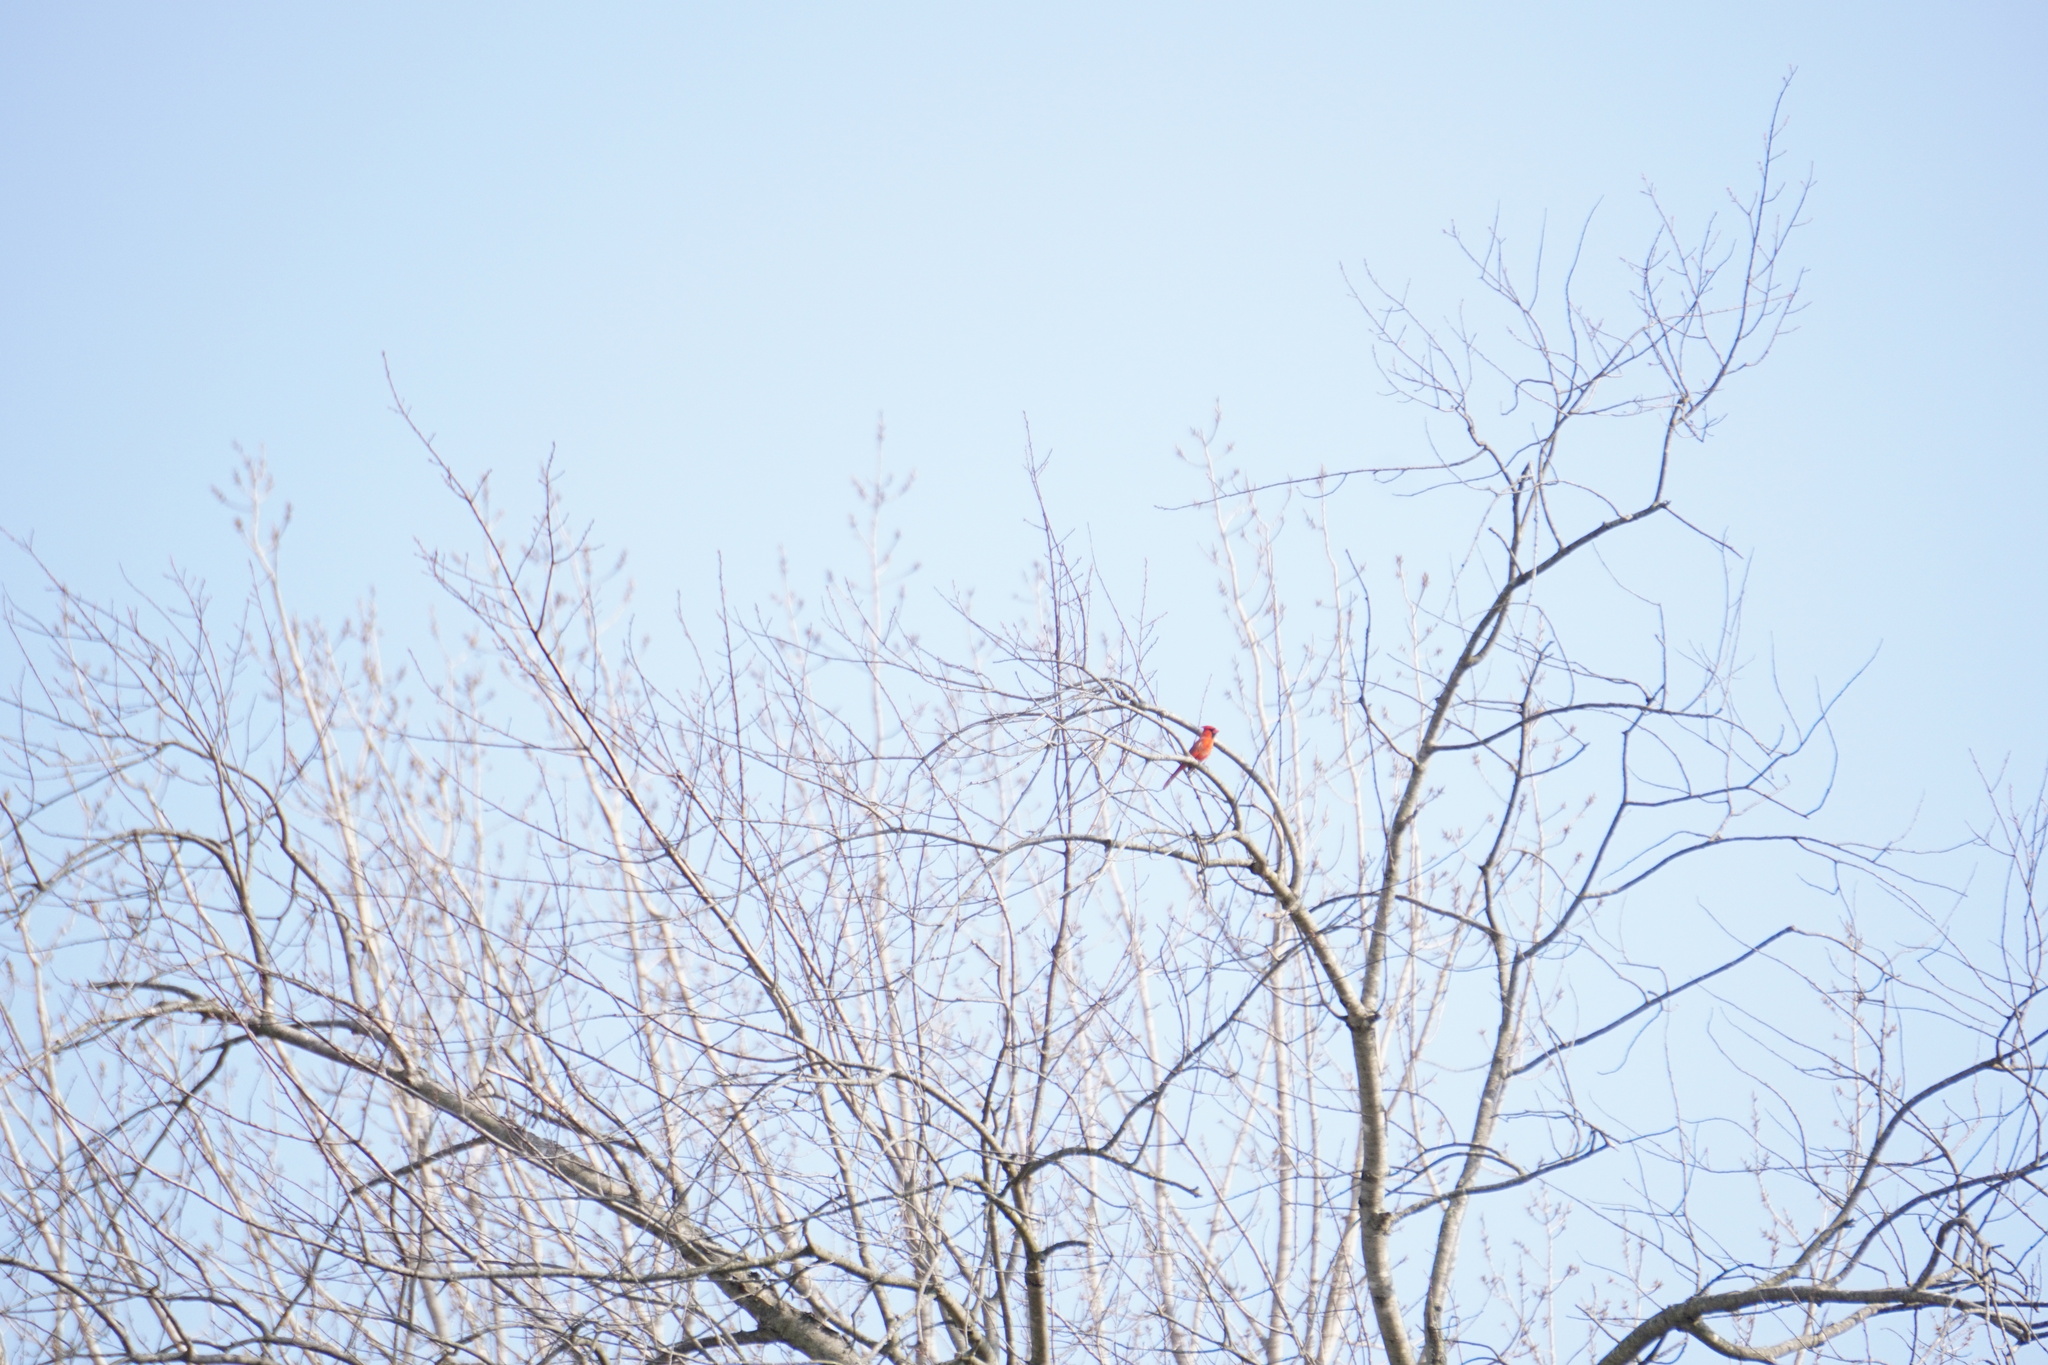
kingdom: Animalia
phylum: Chordata
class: Aves
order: Passeriformes
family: Cardinalidae
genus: Cardinalis
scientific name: Cardinalis cardinalis
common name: Northern cardinal
